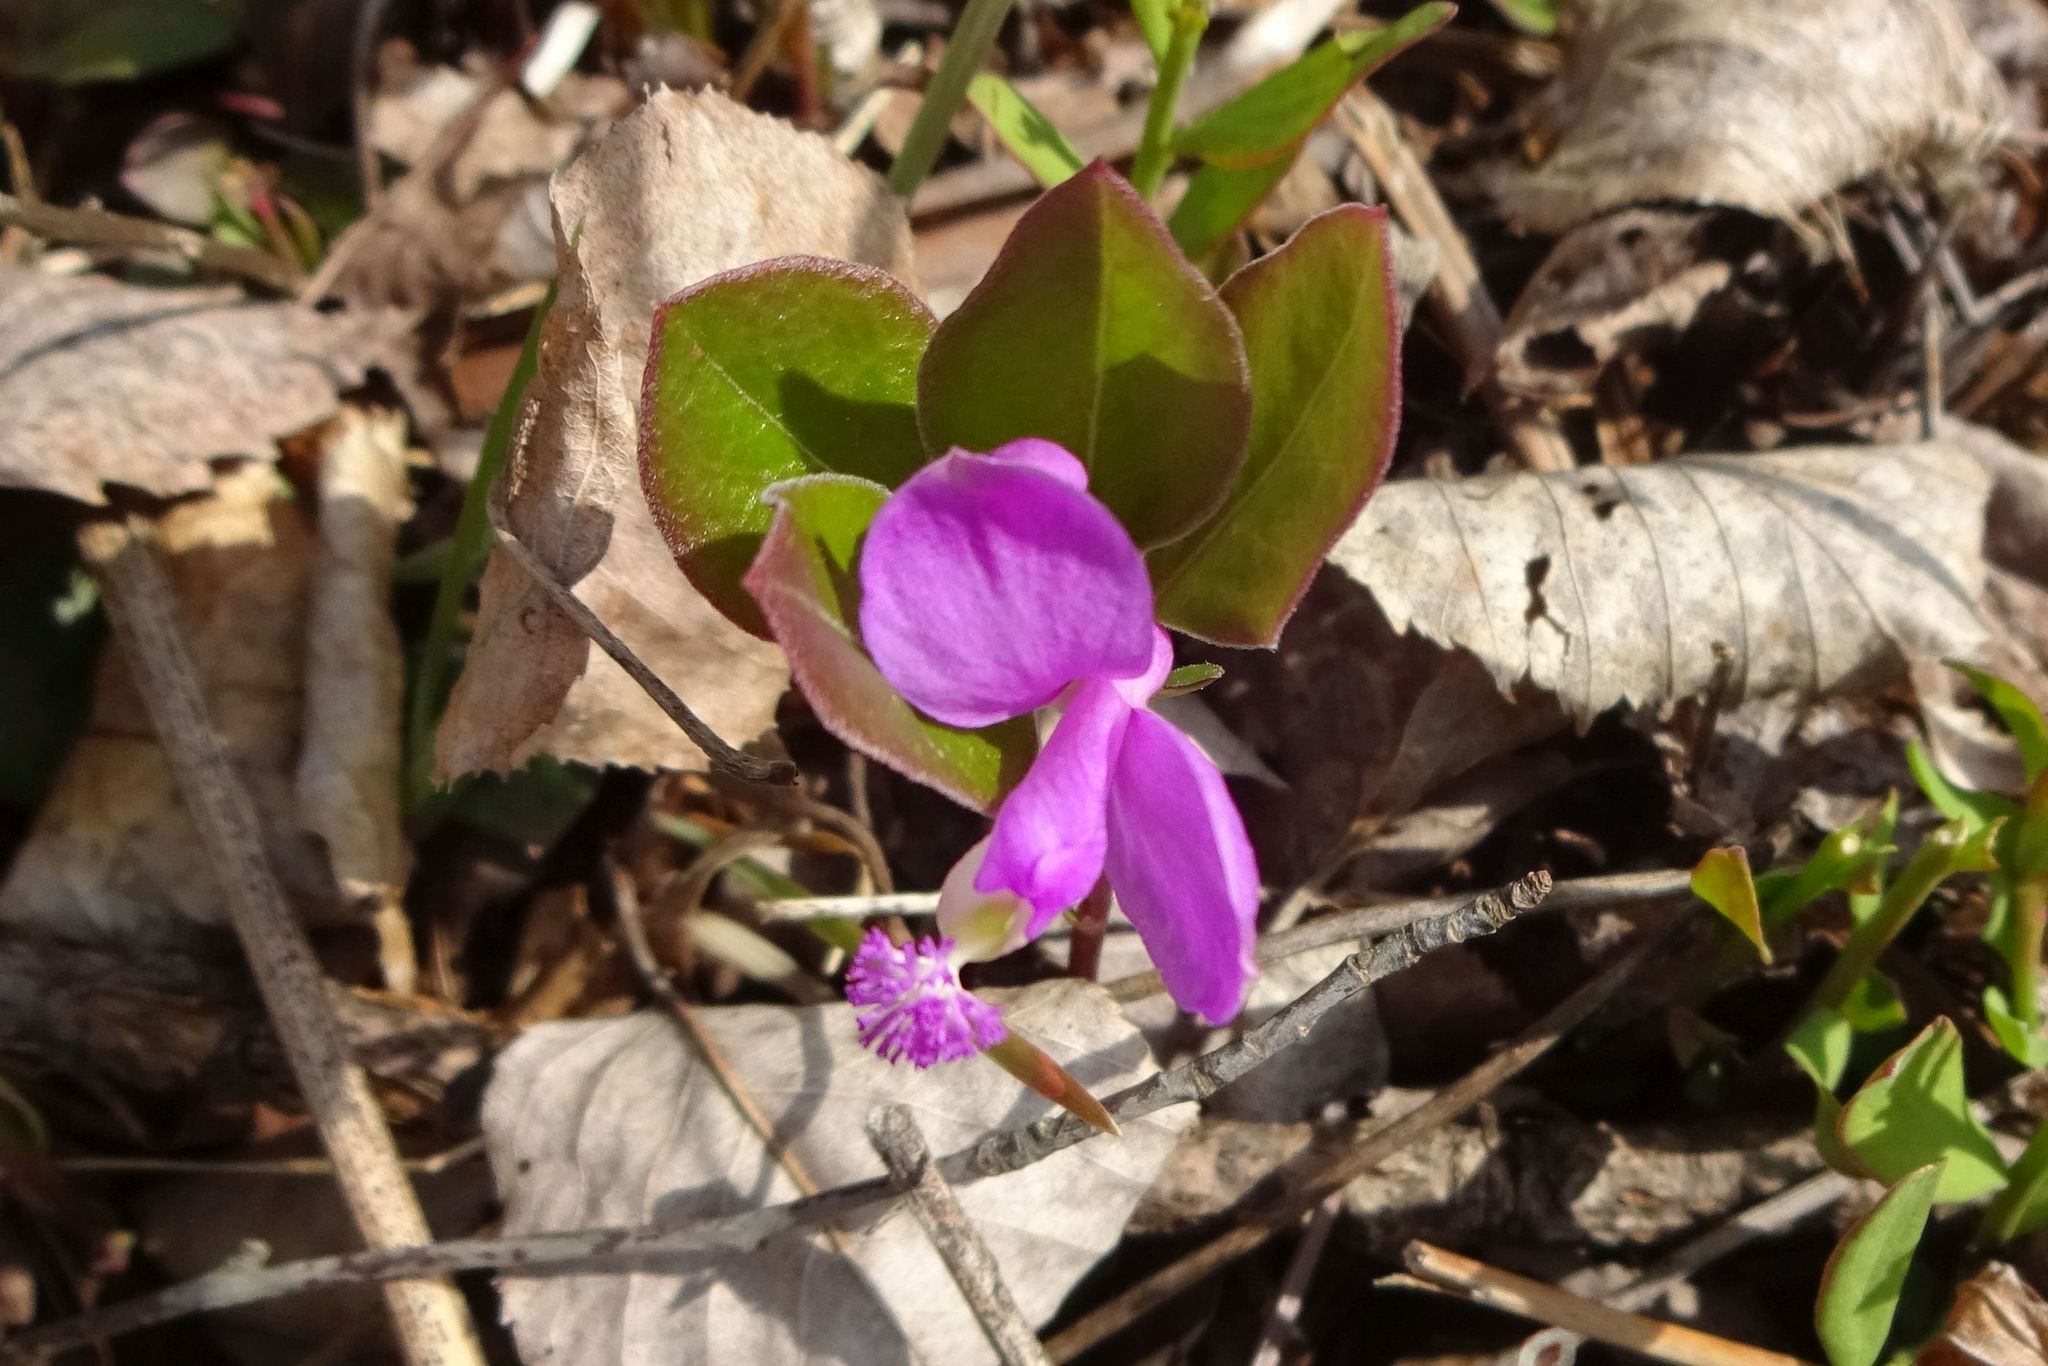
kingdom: Plantae
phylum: Tracheophyta
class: Magnoliopsida
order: Fabales
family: Polygalaceae
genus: Polygaloides
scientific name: Polygaloides paucifolia
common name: Bird-on-the-wing
